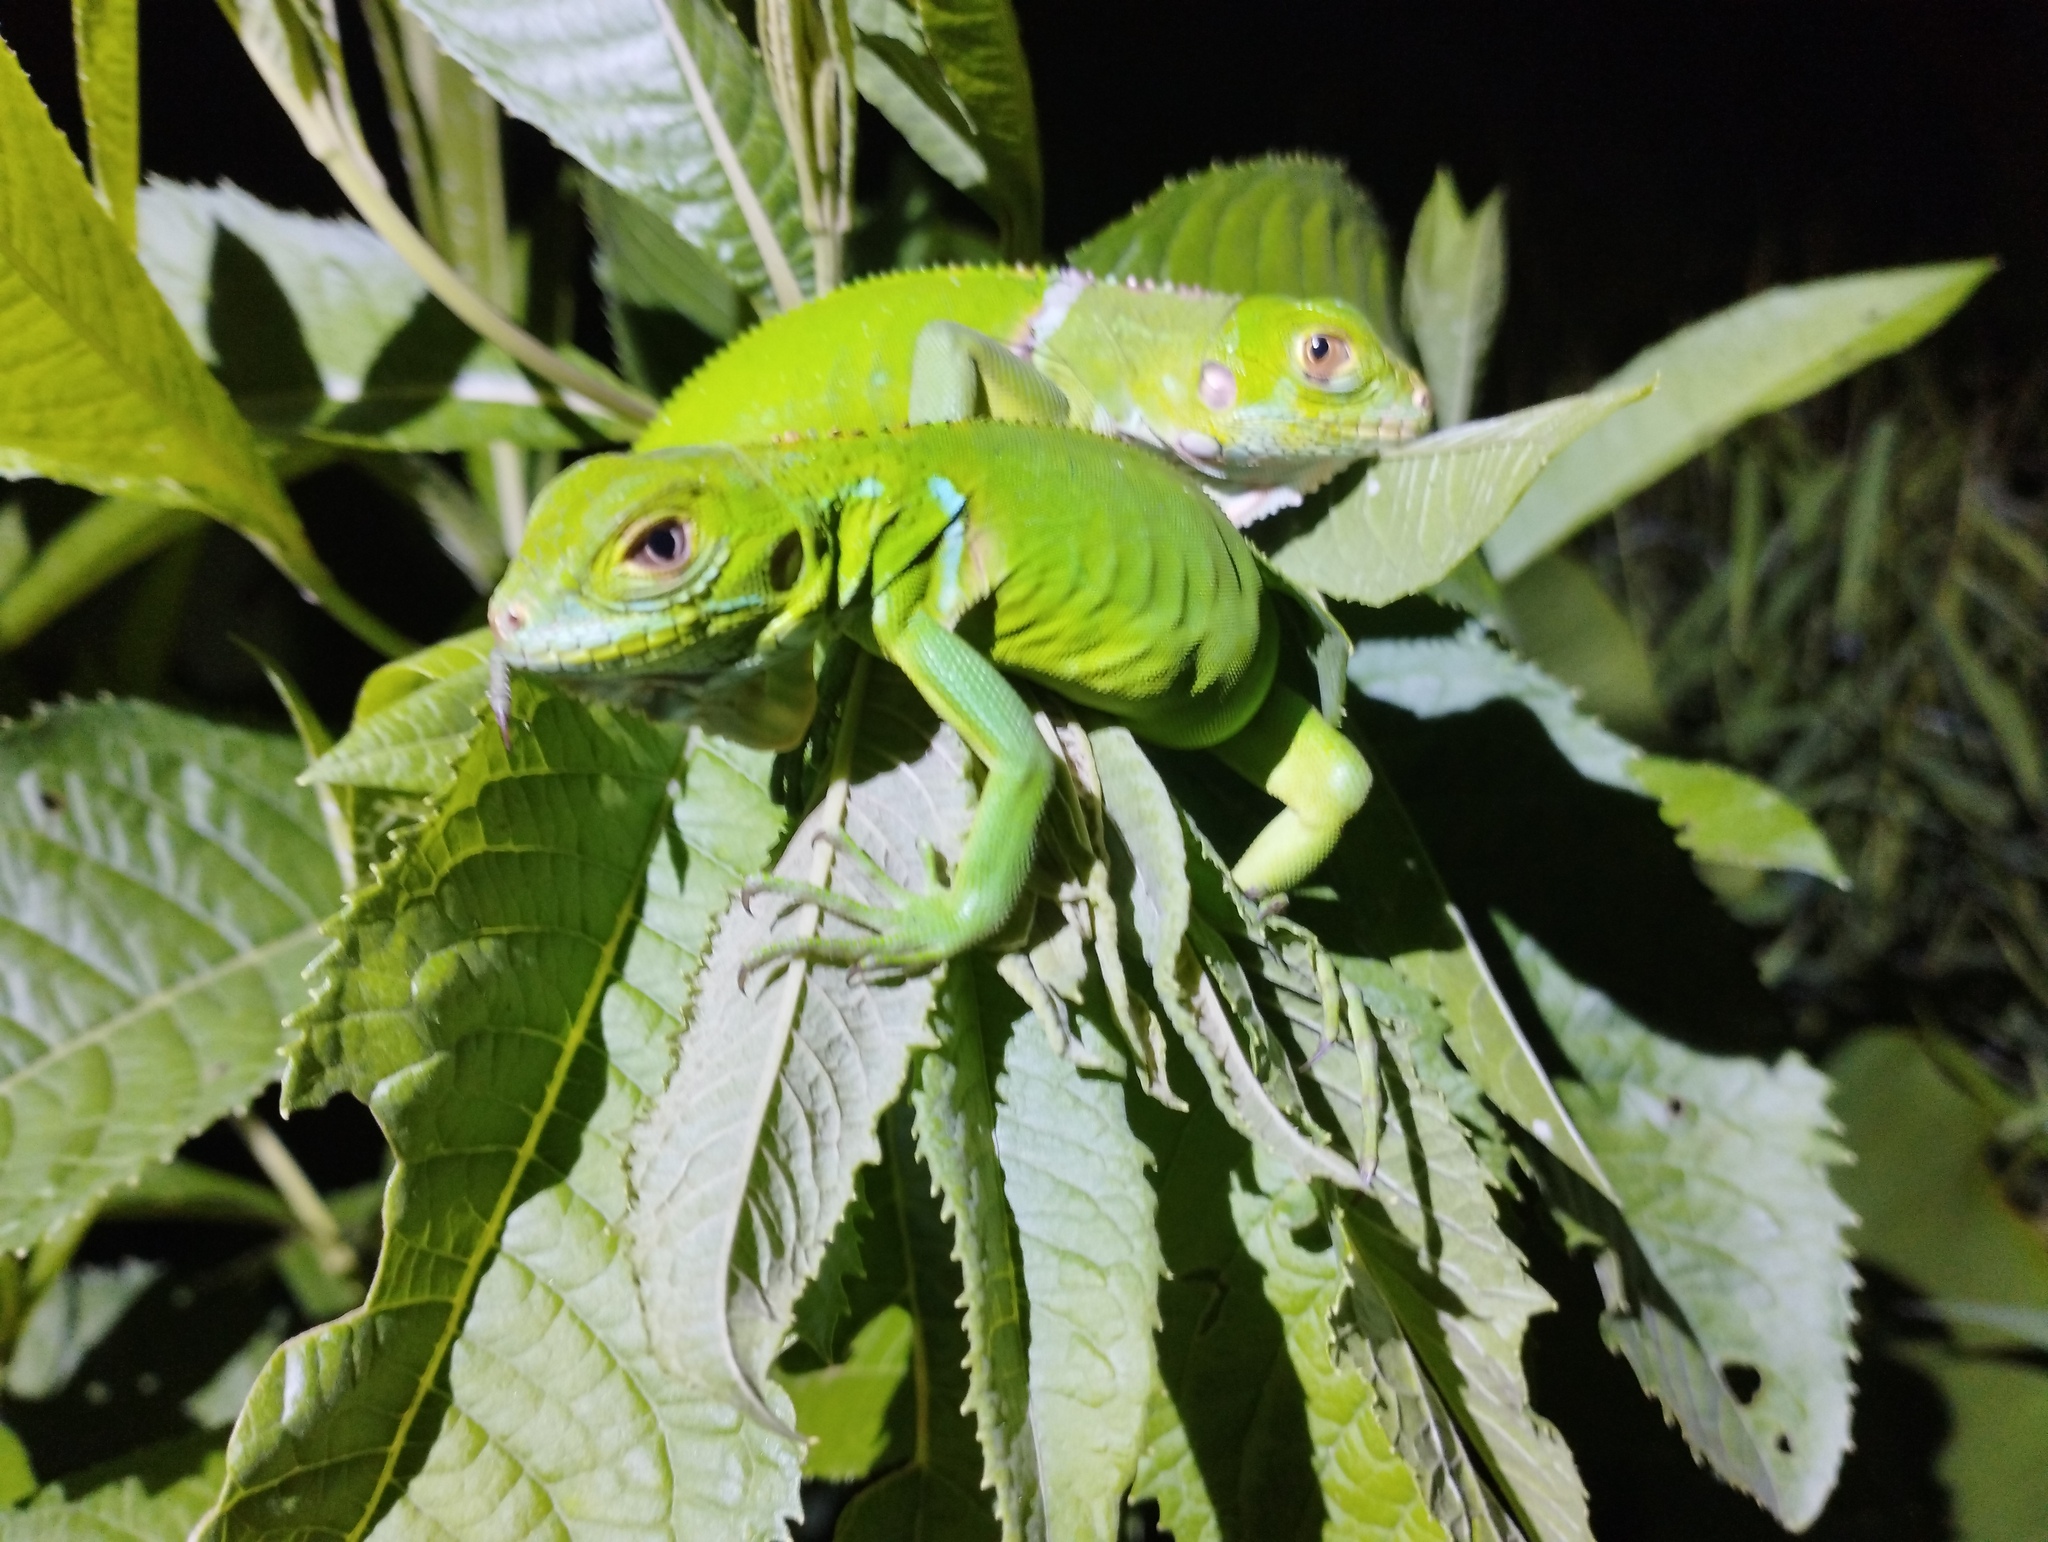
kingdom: Animalia
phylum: Chordata
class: Squamata
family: Iguanidae
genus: Iguana
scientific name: Iguana iguana
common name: Green iguana
